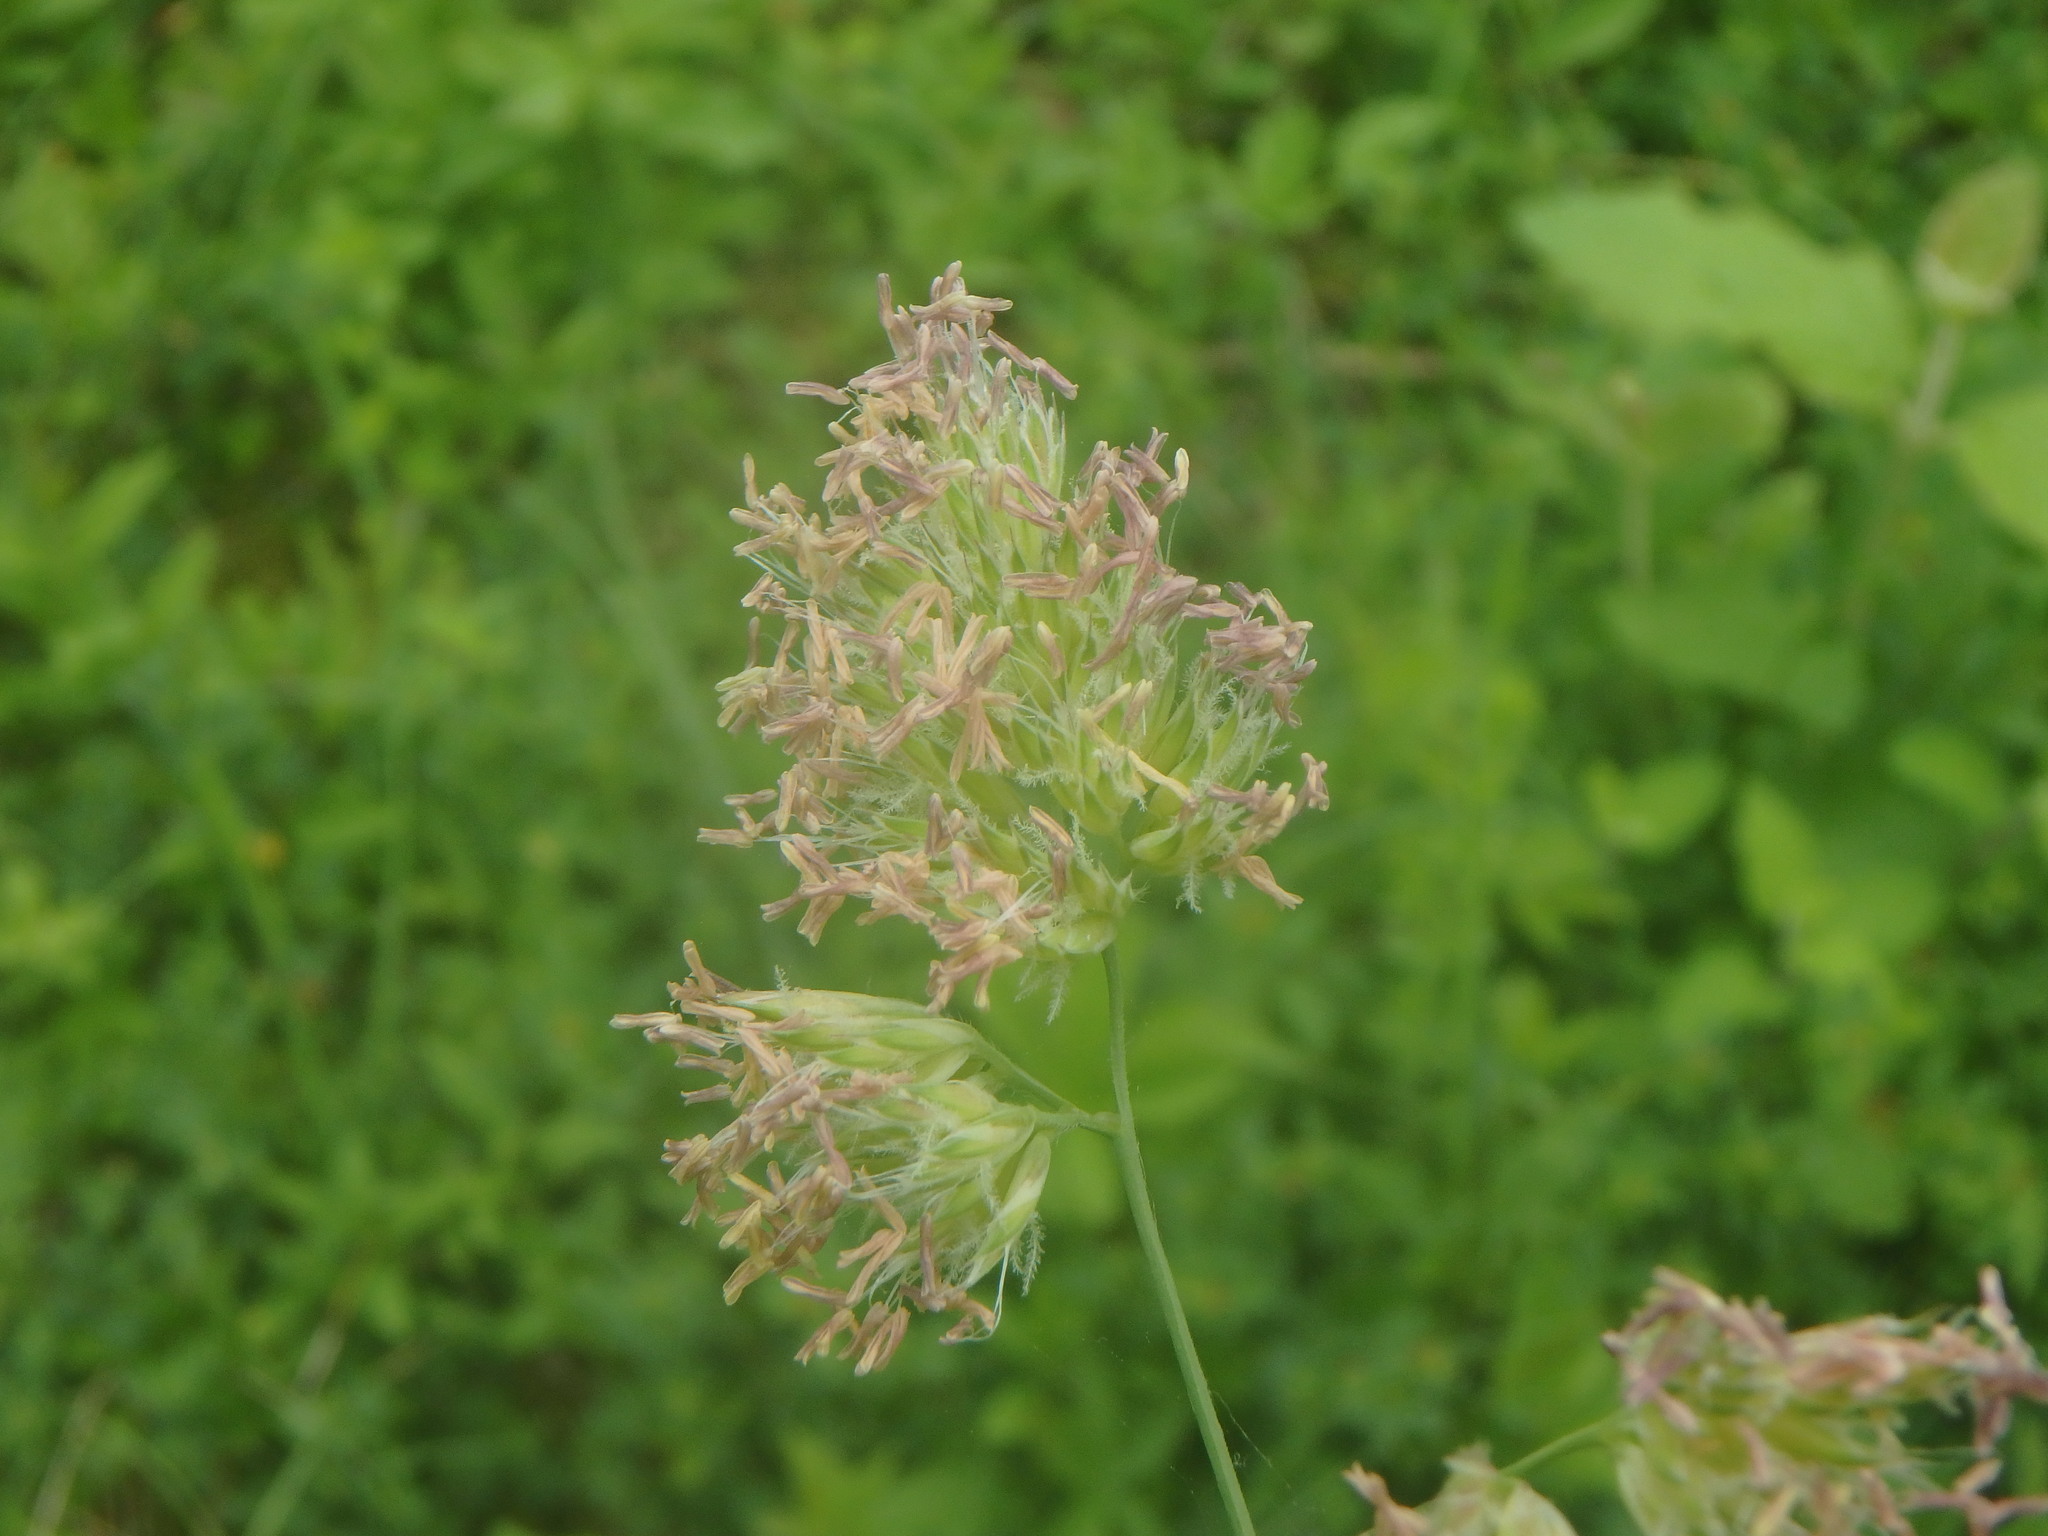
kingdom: Plantae
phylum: Tracheophyta
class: Liliopsida
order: Poales
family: Poaceae
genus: Dactylis
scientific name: Dactylis glomerata
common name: Orchardgrass
